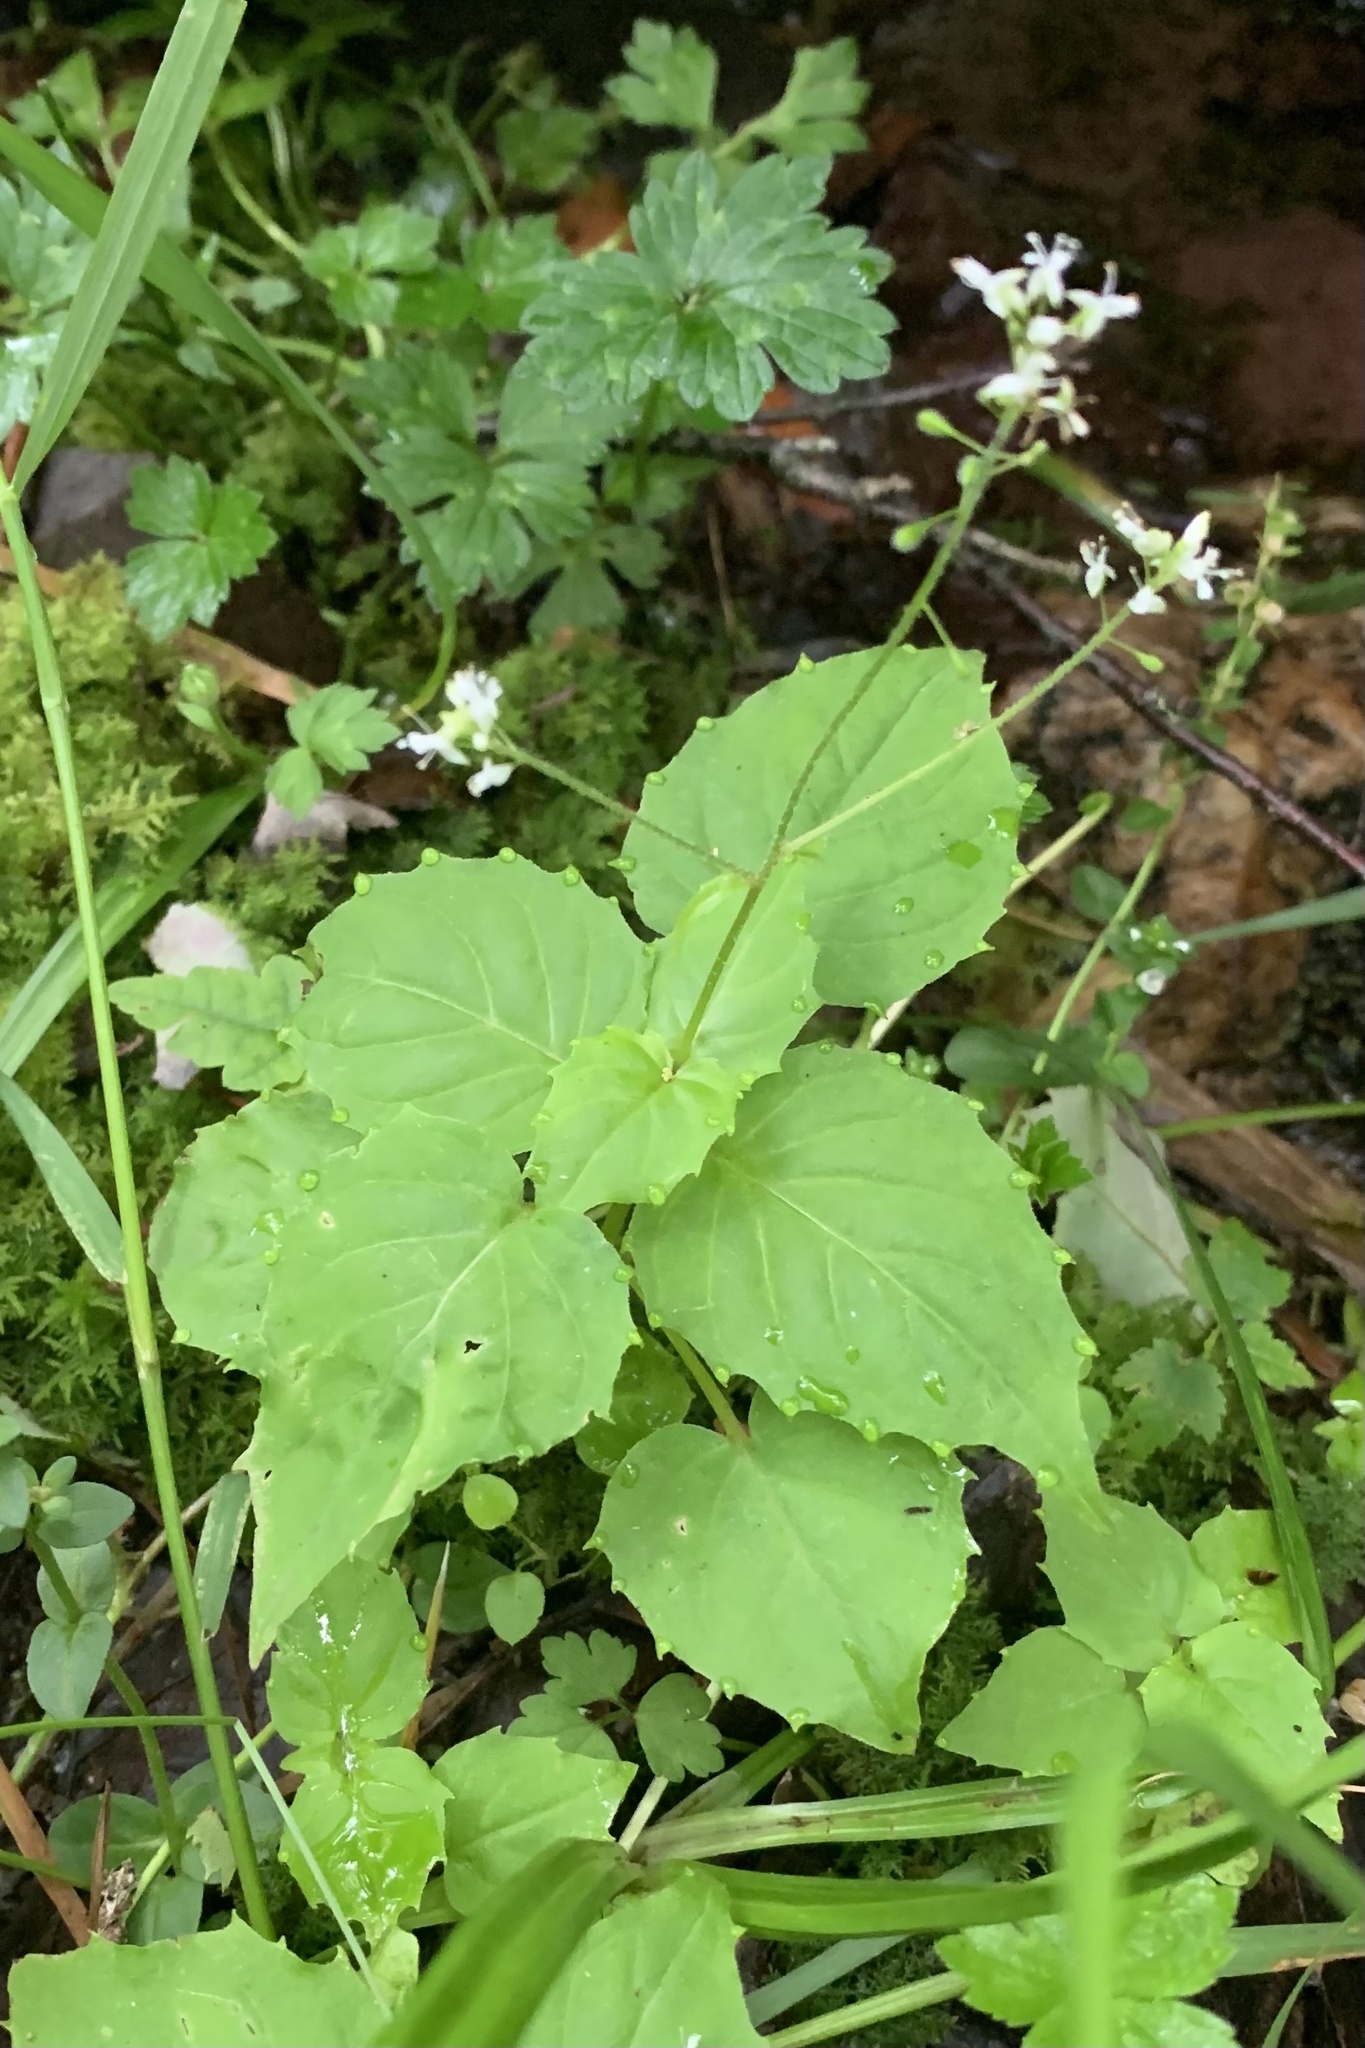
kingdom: Plantae
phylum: Tracheophyta
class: Magnoliopsida
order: Myrtales
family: Onagraceae
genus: Circaea
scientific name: Circaea alpina
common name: Alpine enchanter's-nightshade
